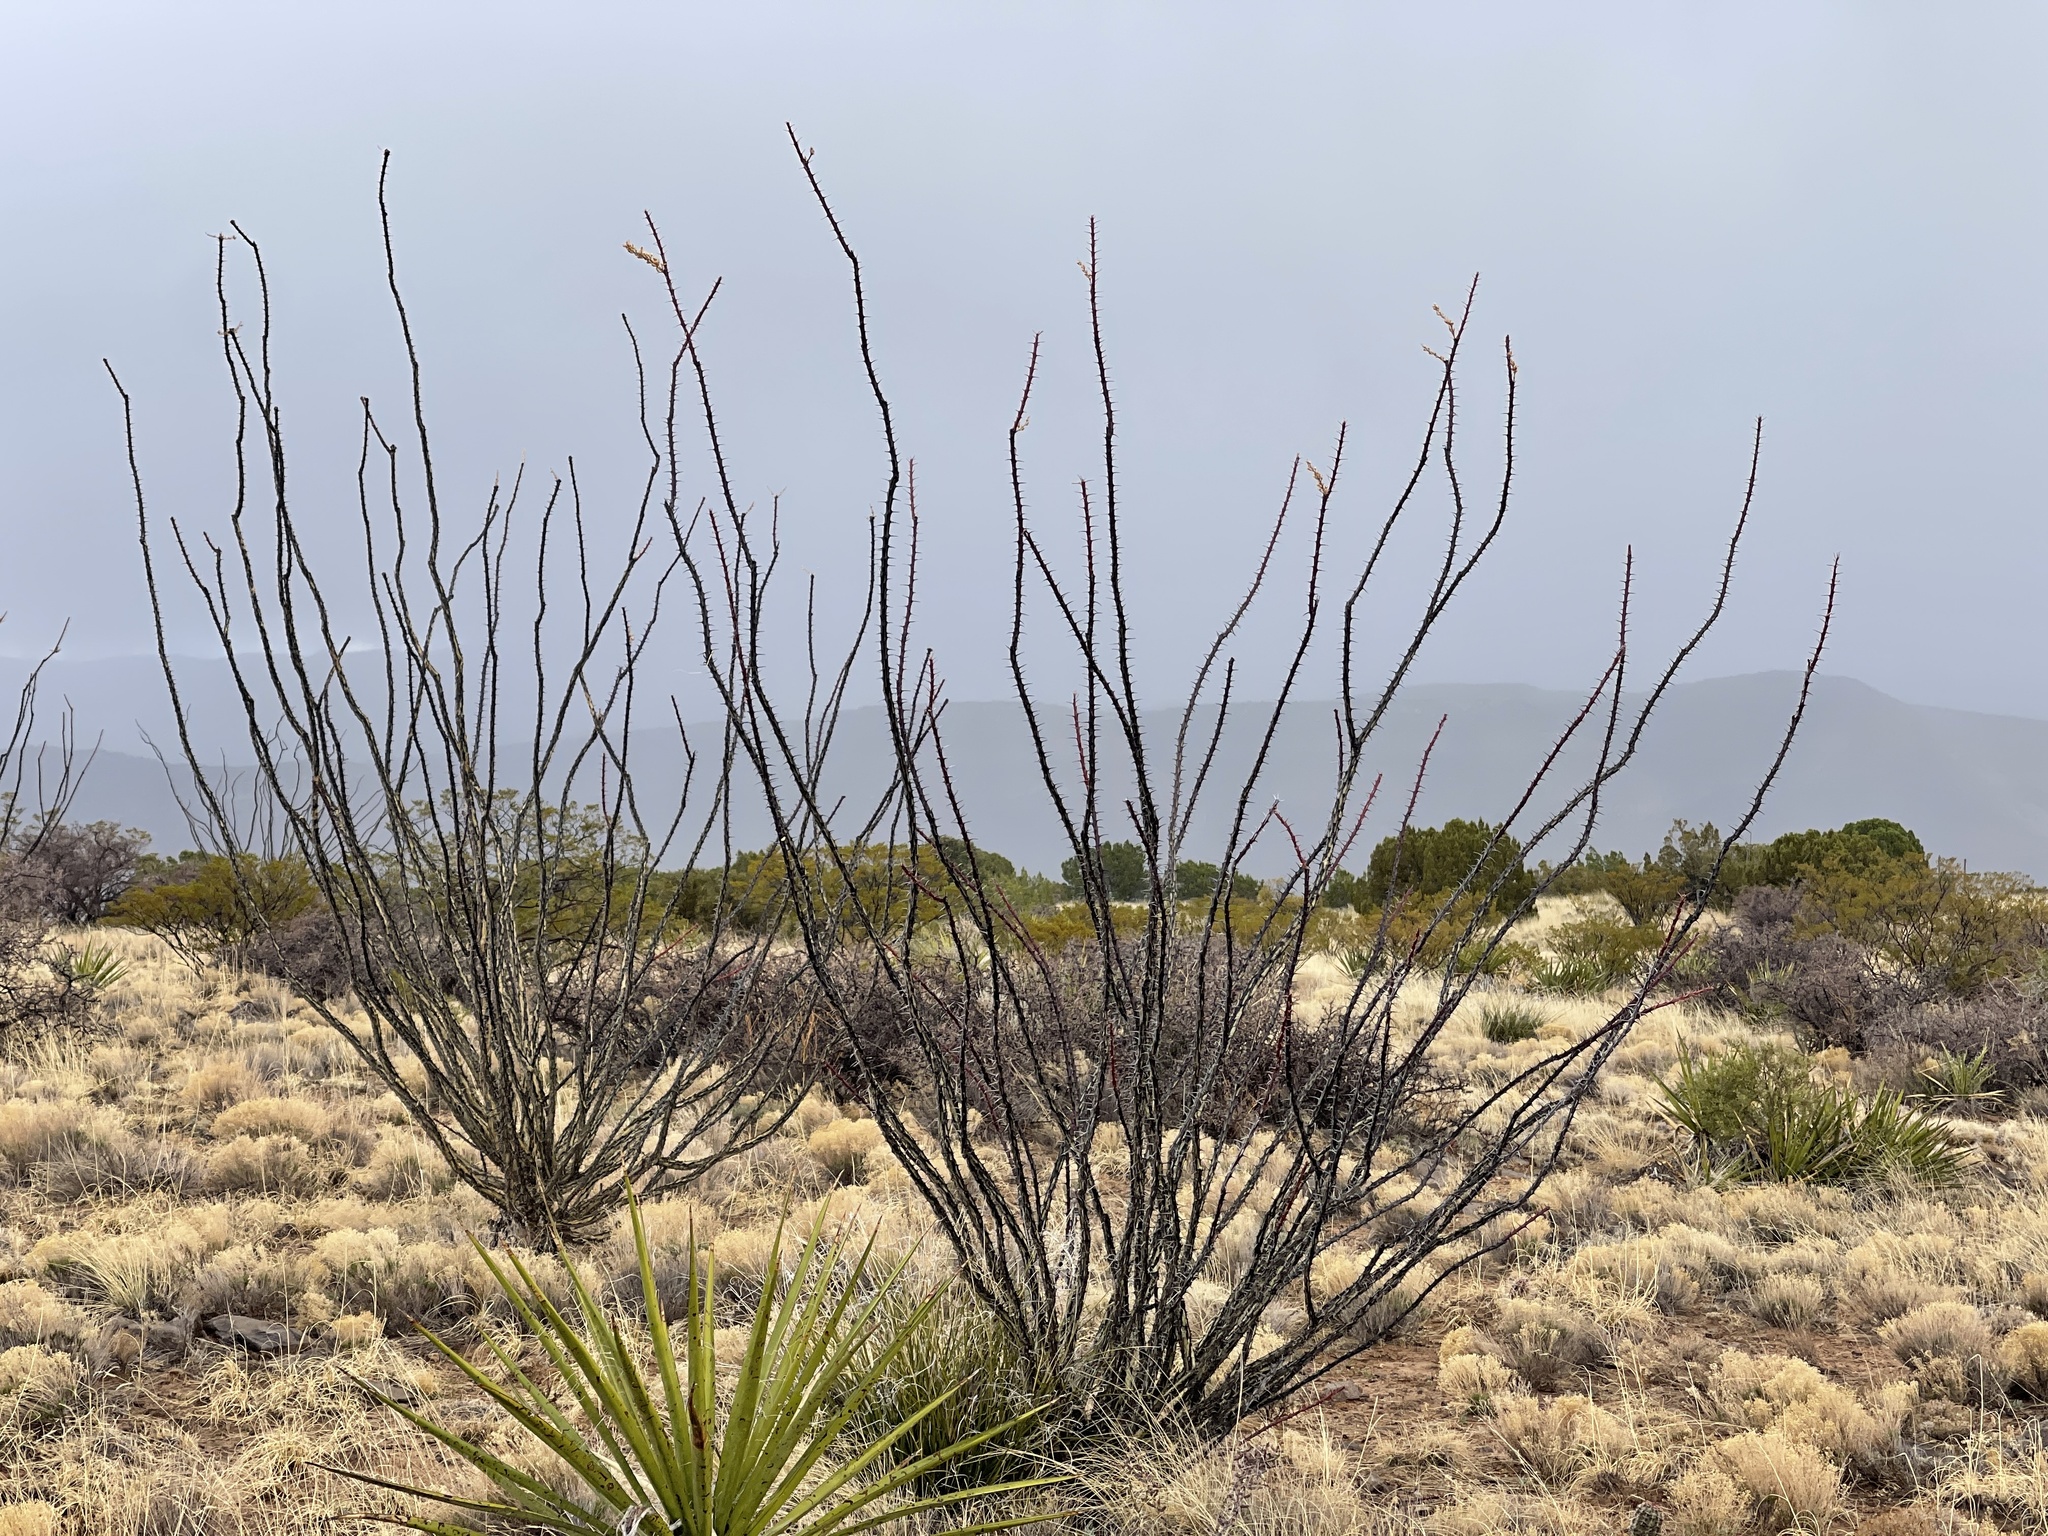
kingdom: Plantae
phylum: Tracheophyta
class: Magnoliopsida
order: Ericales
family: Fouquieriaceae
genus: Fouquieria
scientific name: Fouquieria splendens
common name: Vine-cactus
